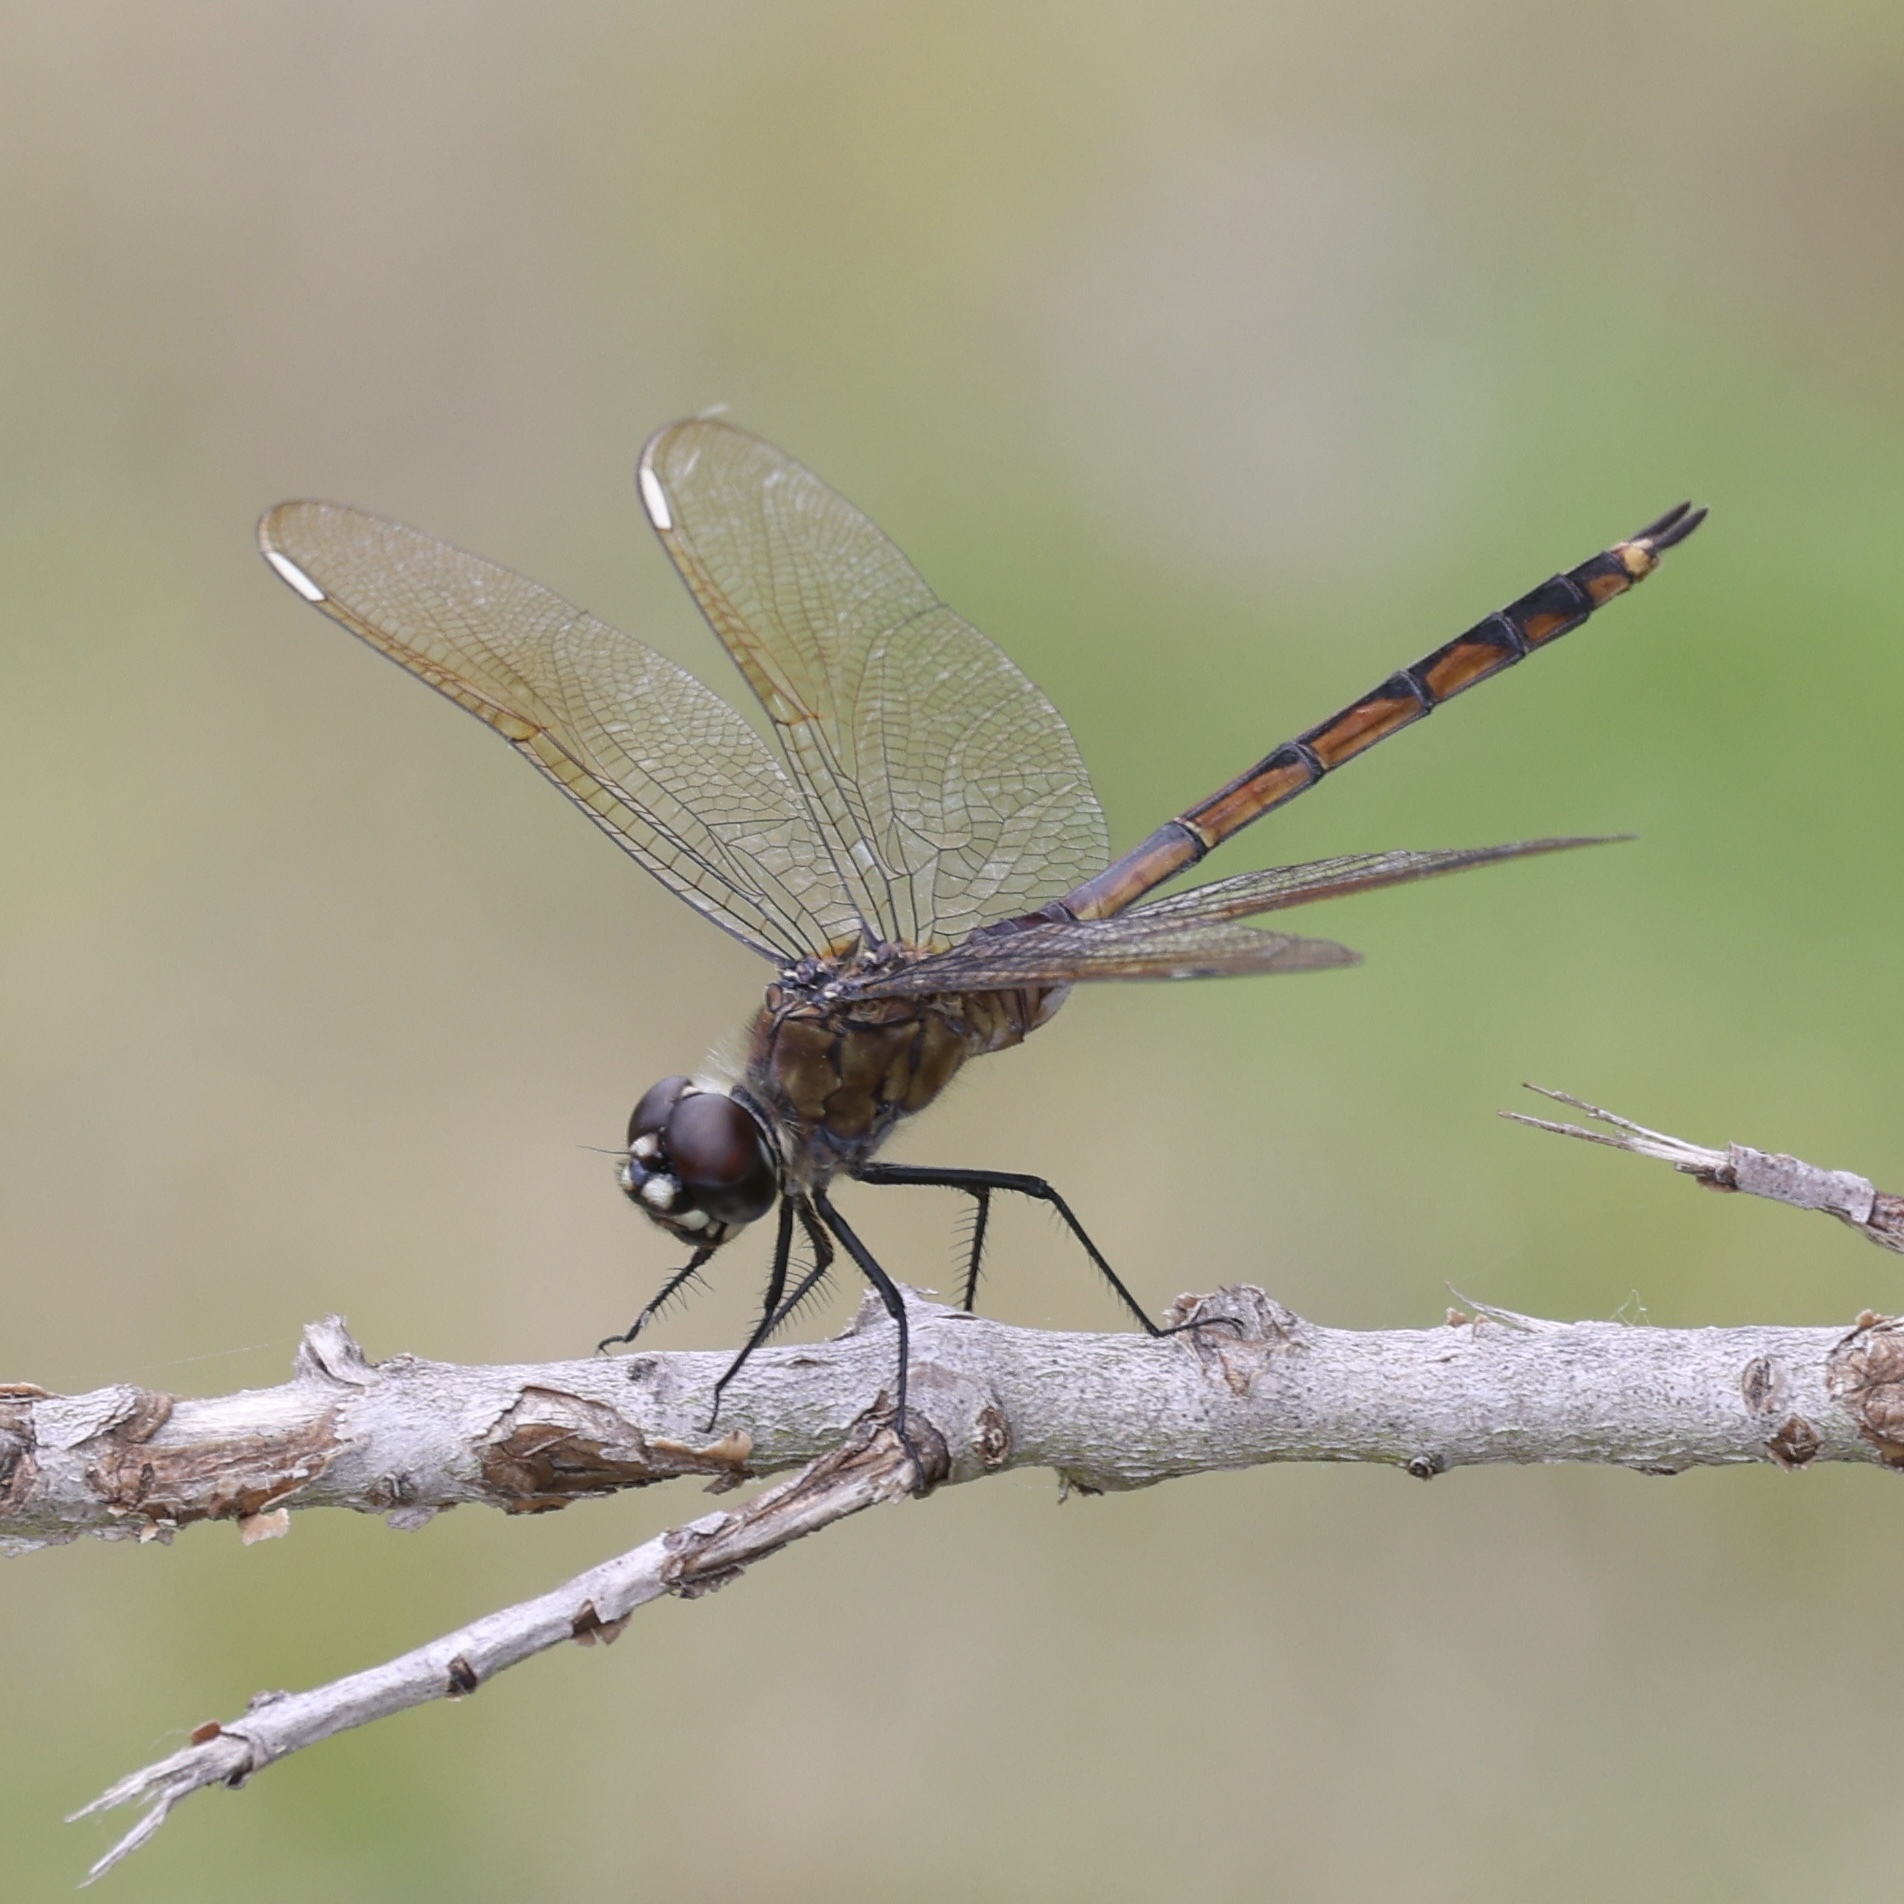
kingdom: Animalia
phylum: Arthropoda
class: Insecta
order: Odonata
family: Libellulidae
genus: Brachymesia
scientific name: Brachymesia gravida
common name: Four-spotted pennant
